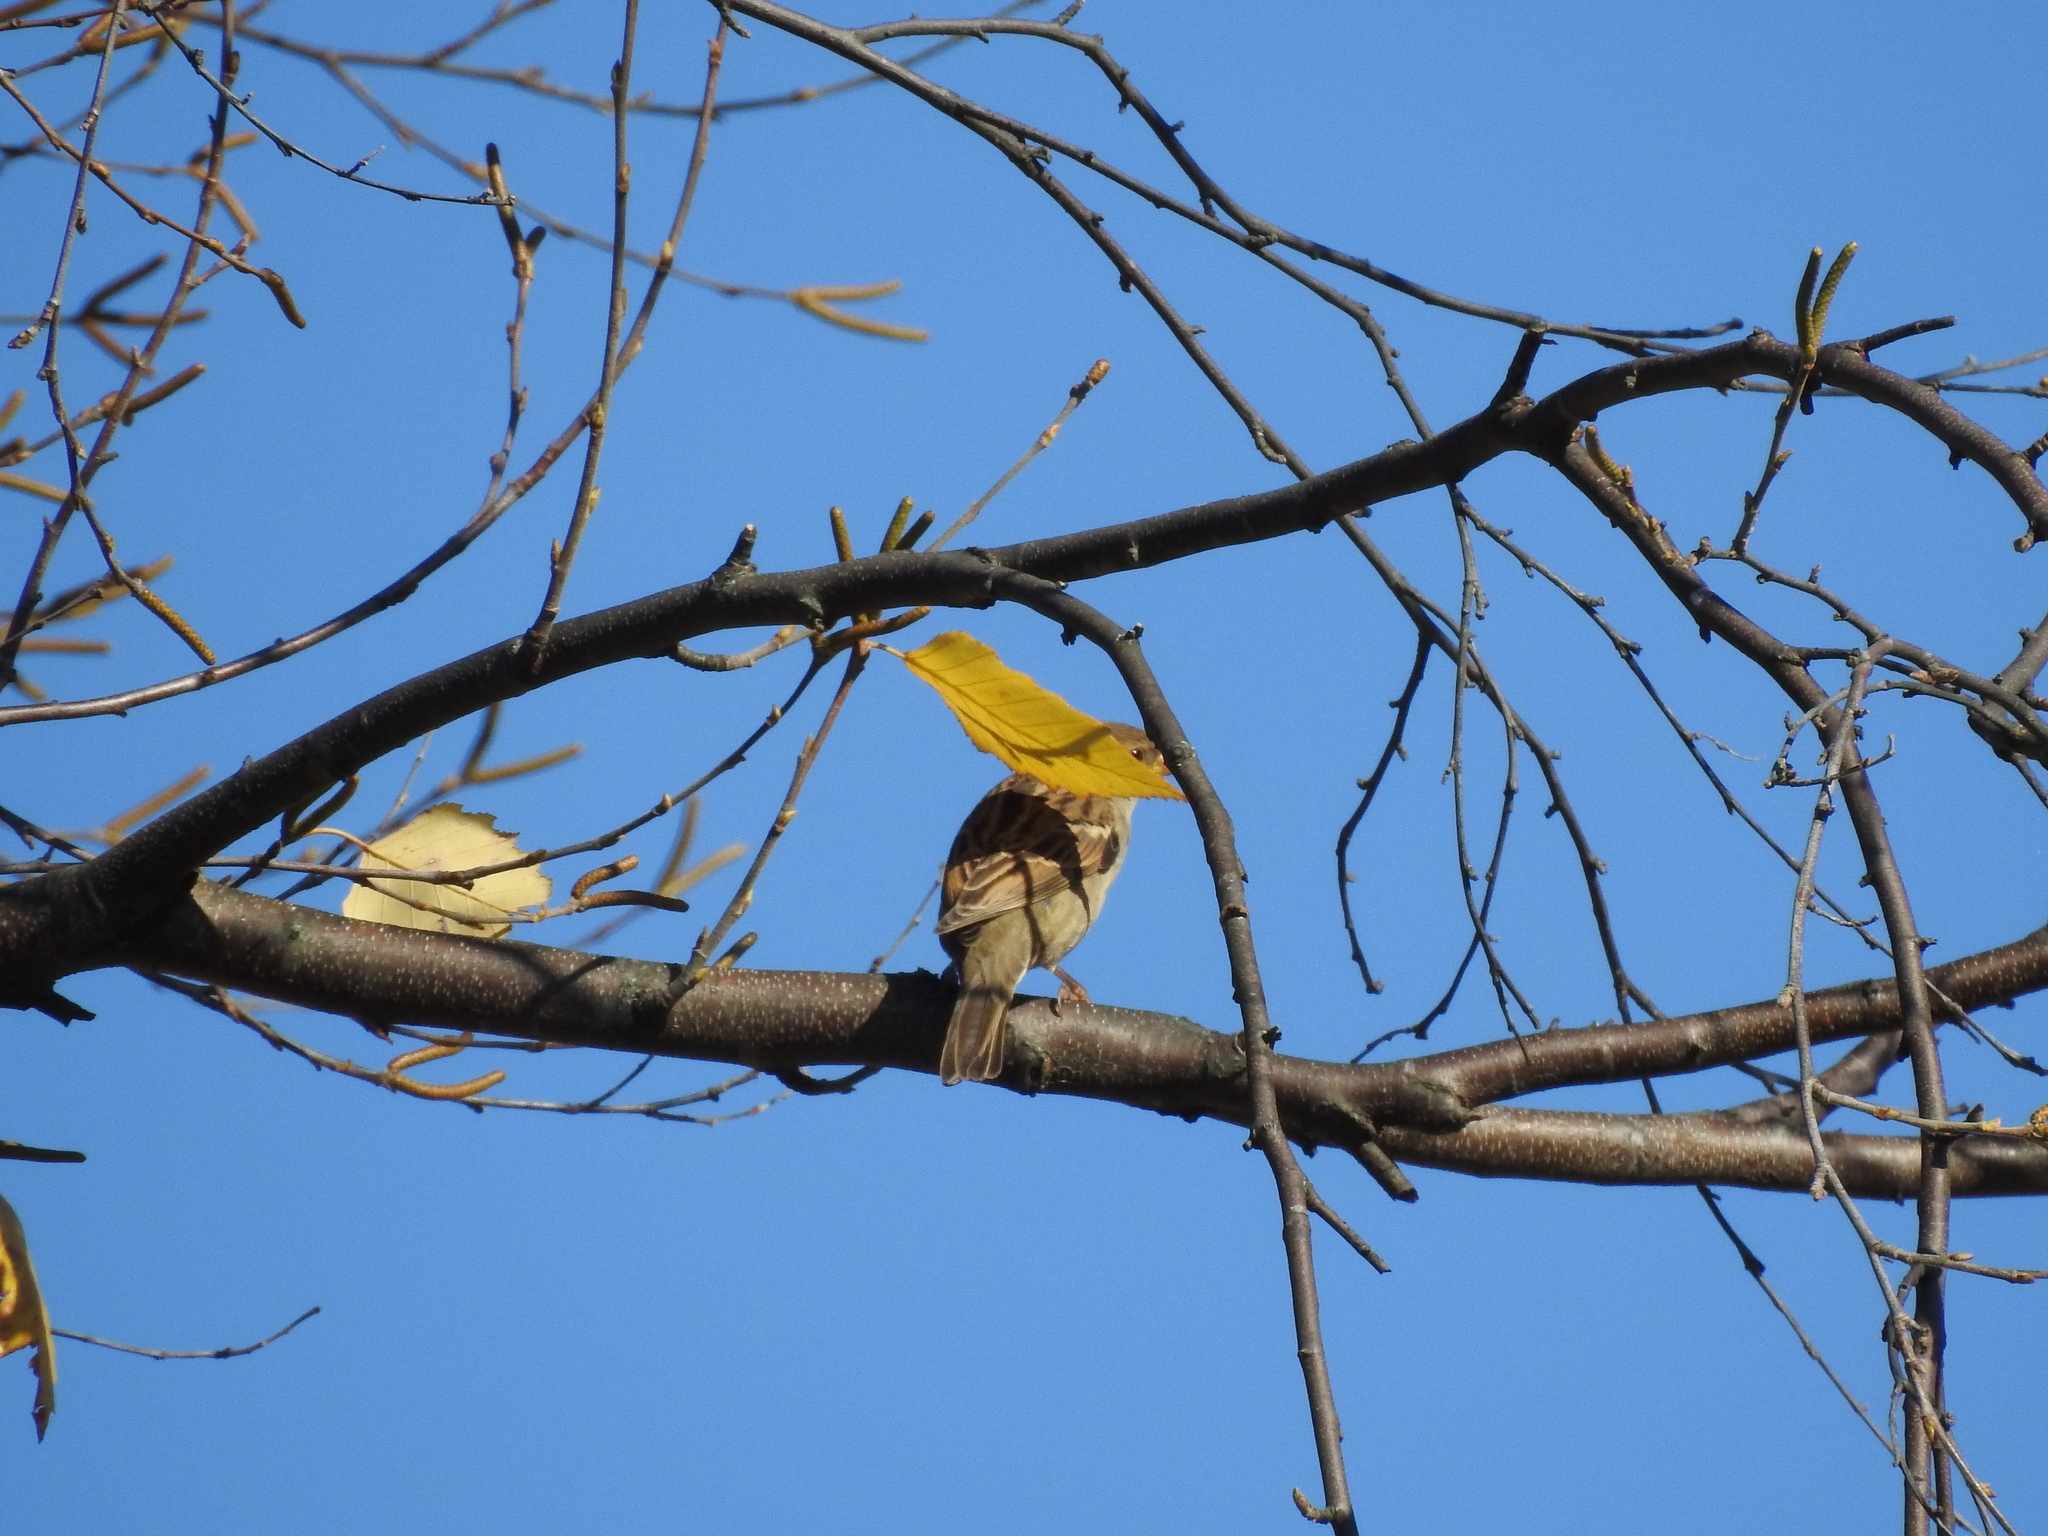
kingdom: Animalia
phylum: Chordata
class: Aves
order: Passeriformes
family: Passeridae
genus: Passer
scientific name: Passer domesticus
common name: House sparrow
